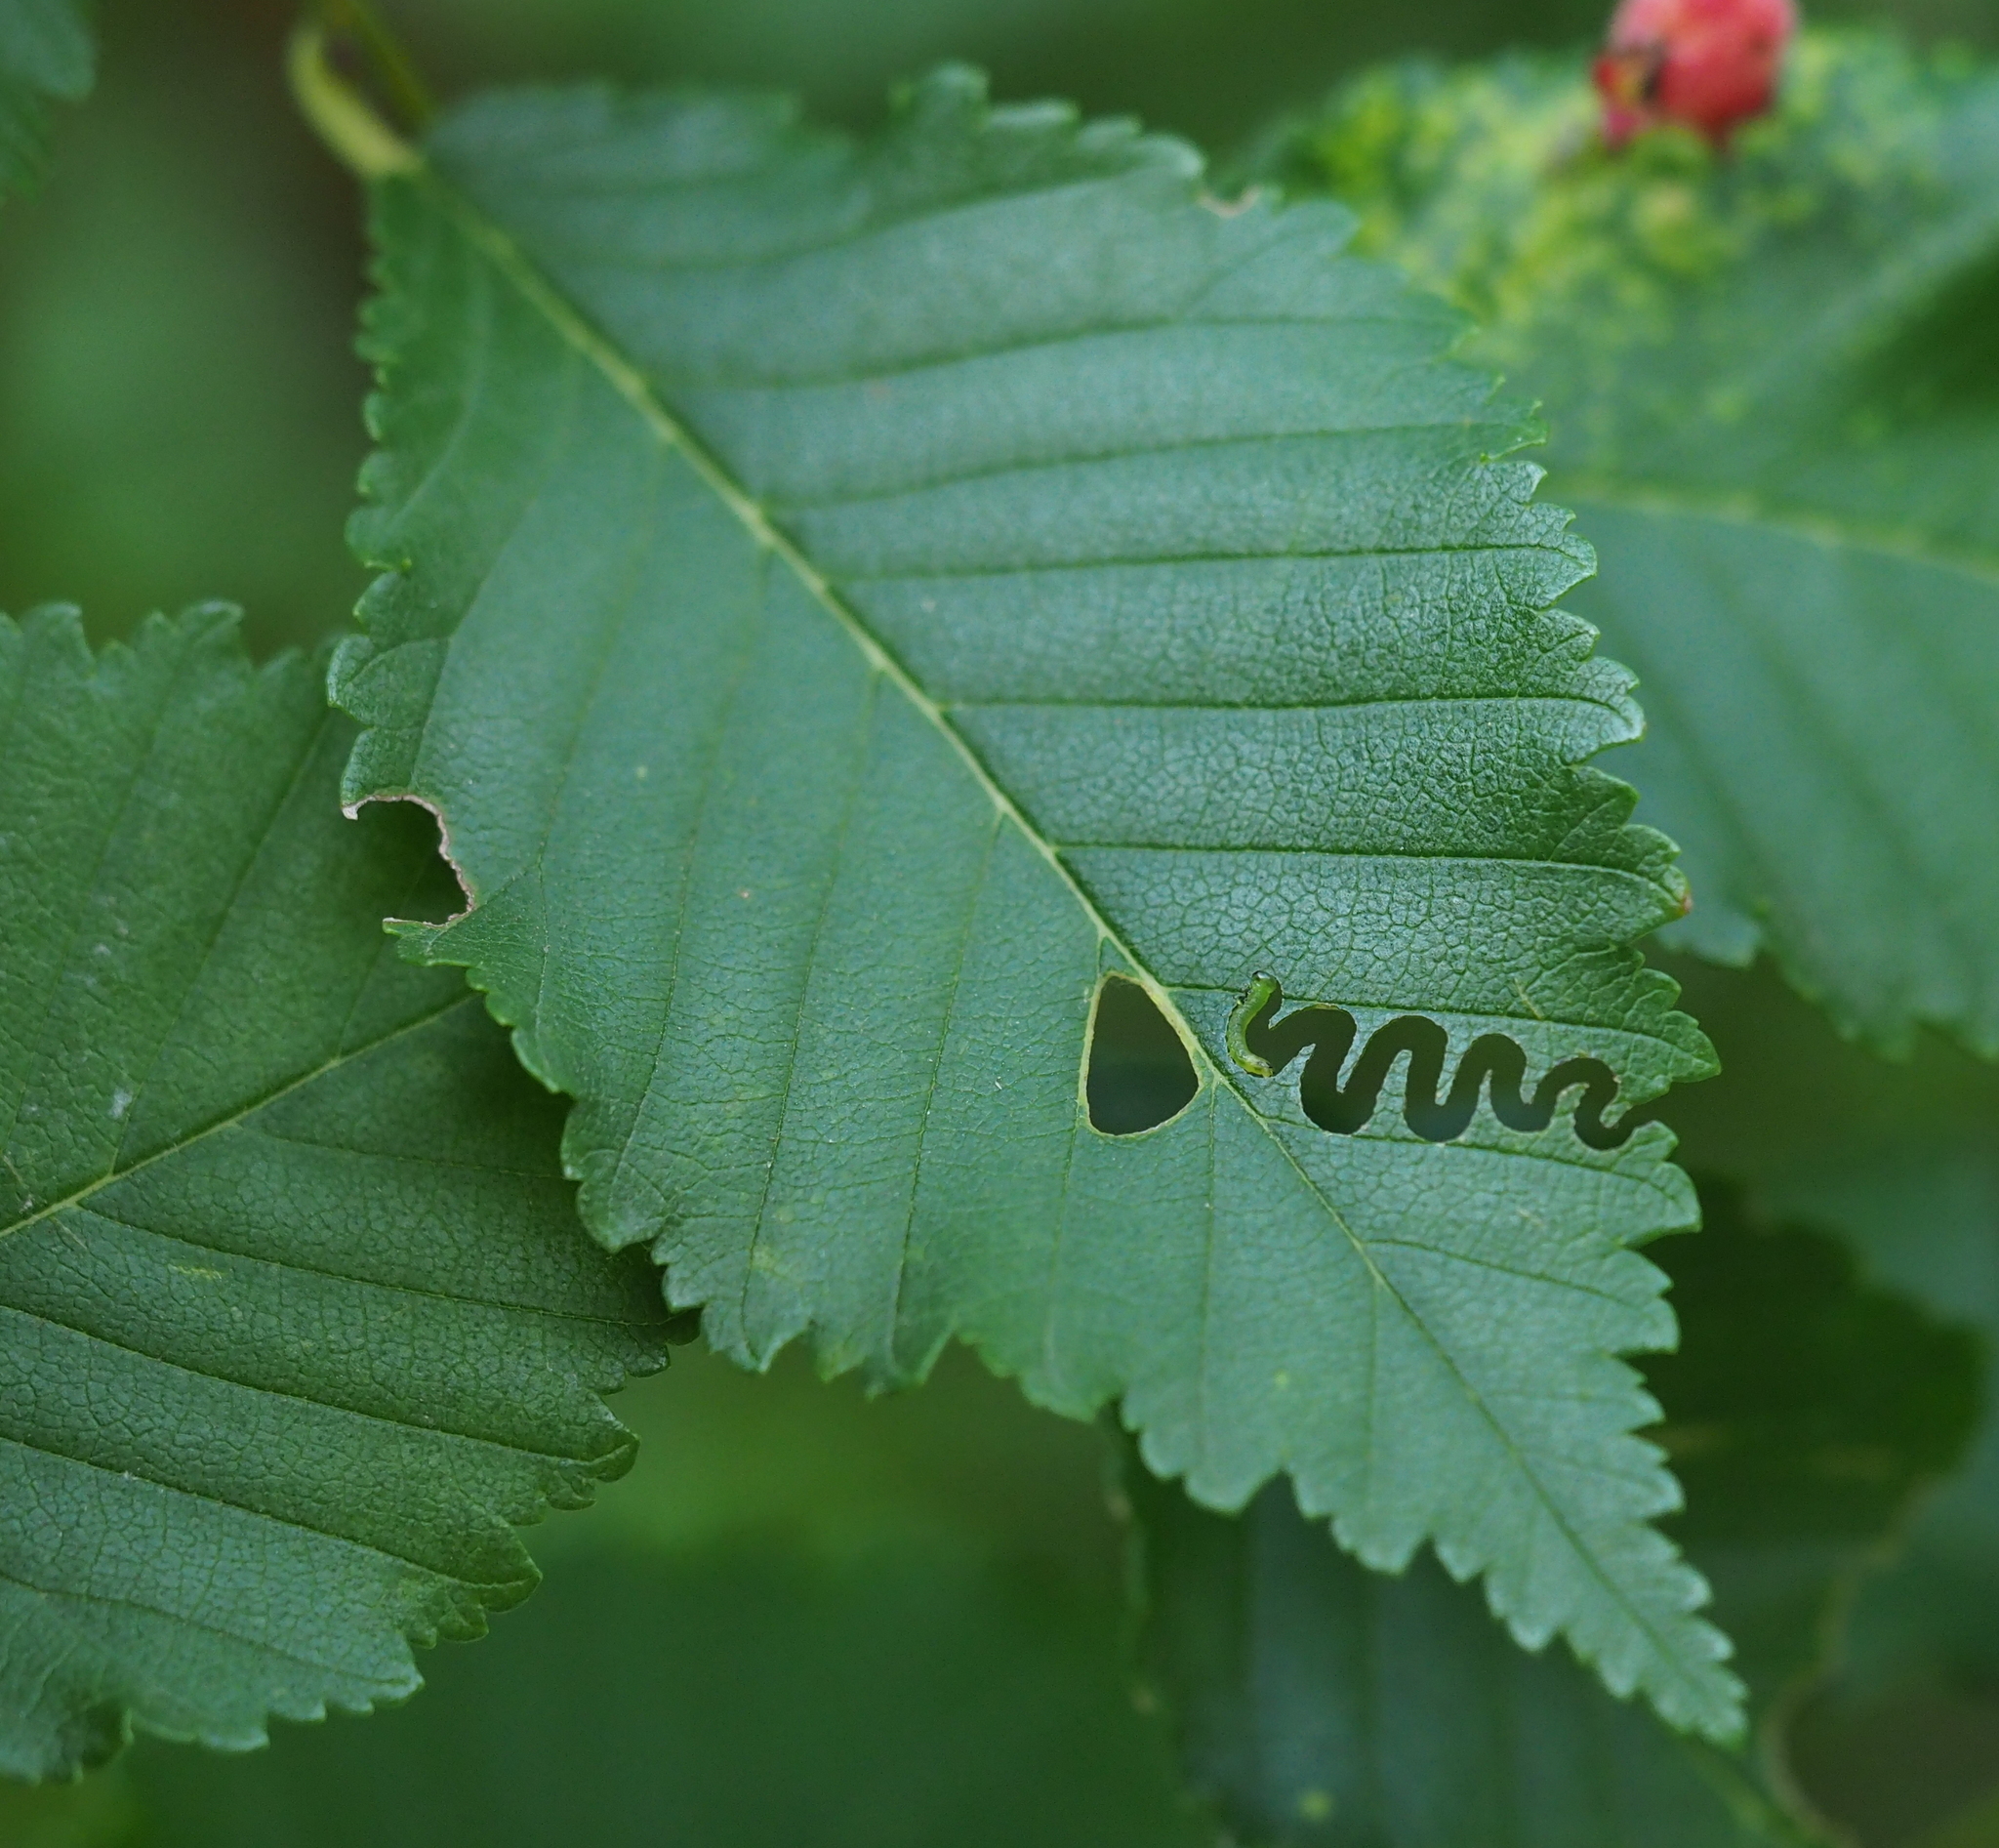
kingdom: Animalia
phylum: Arthropoda
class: Insecta
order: Hymenoptera
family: Argidae
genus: Aproceros
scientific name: Aproceros leucopoda
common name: Zig-zag elm sawfly
